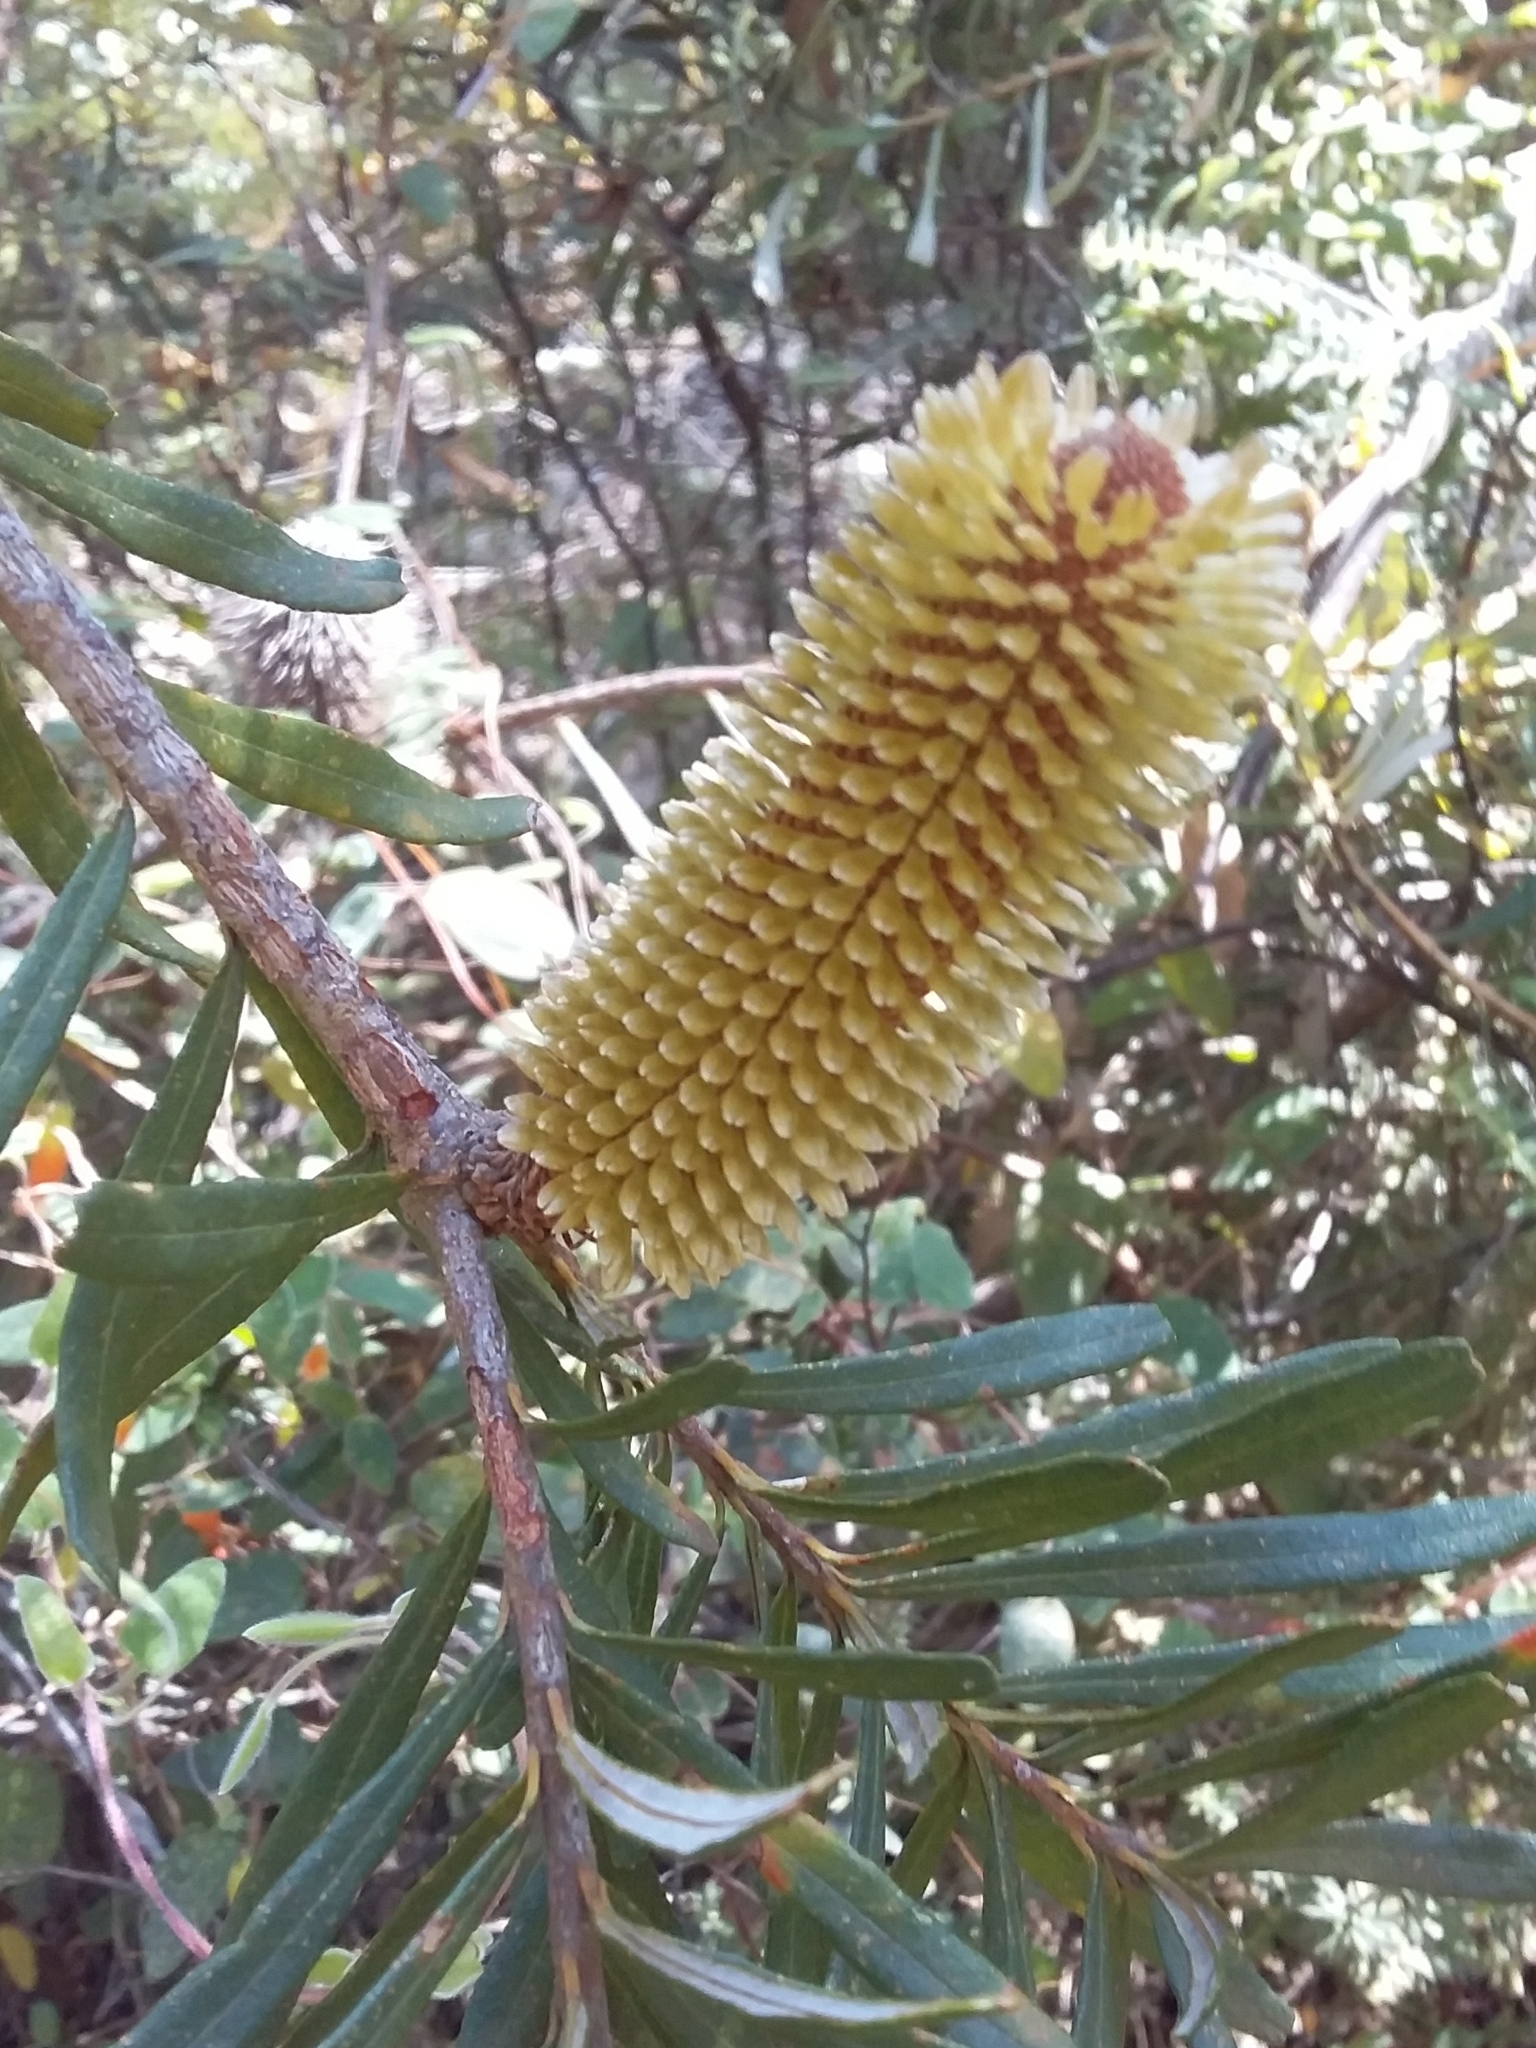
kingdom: Plantae
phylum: Tracheophyta
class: Magnoliopsida
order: Proteales
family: Proteaceae
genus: Banksia
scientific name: Banksia marginata
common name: Silver banksia
